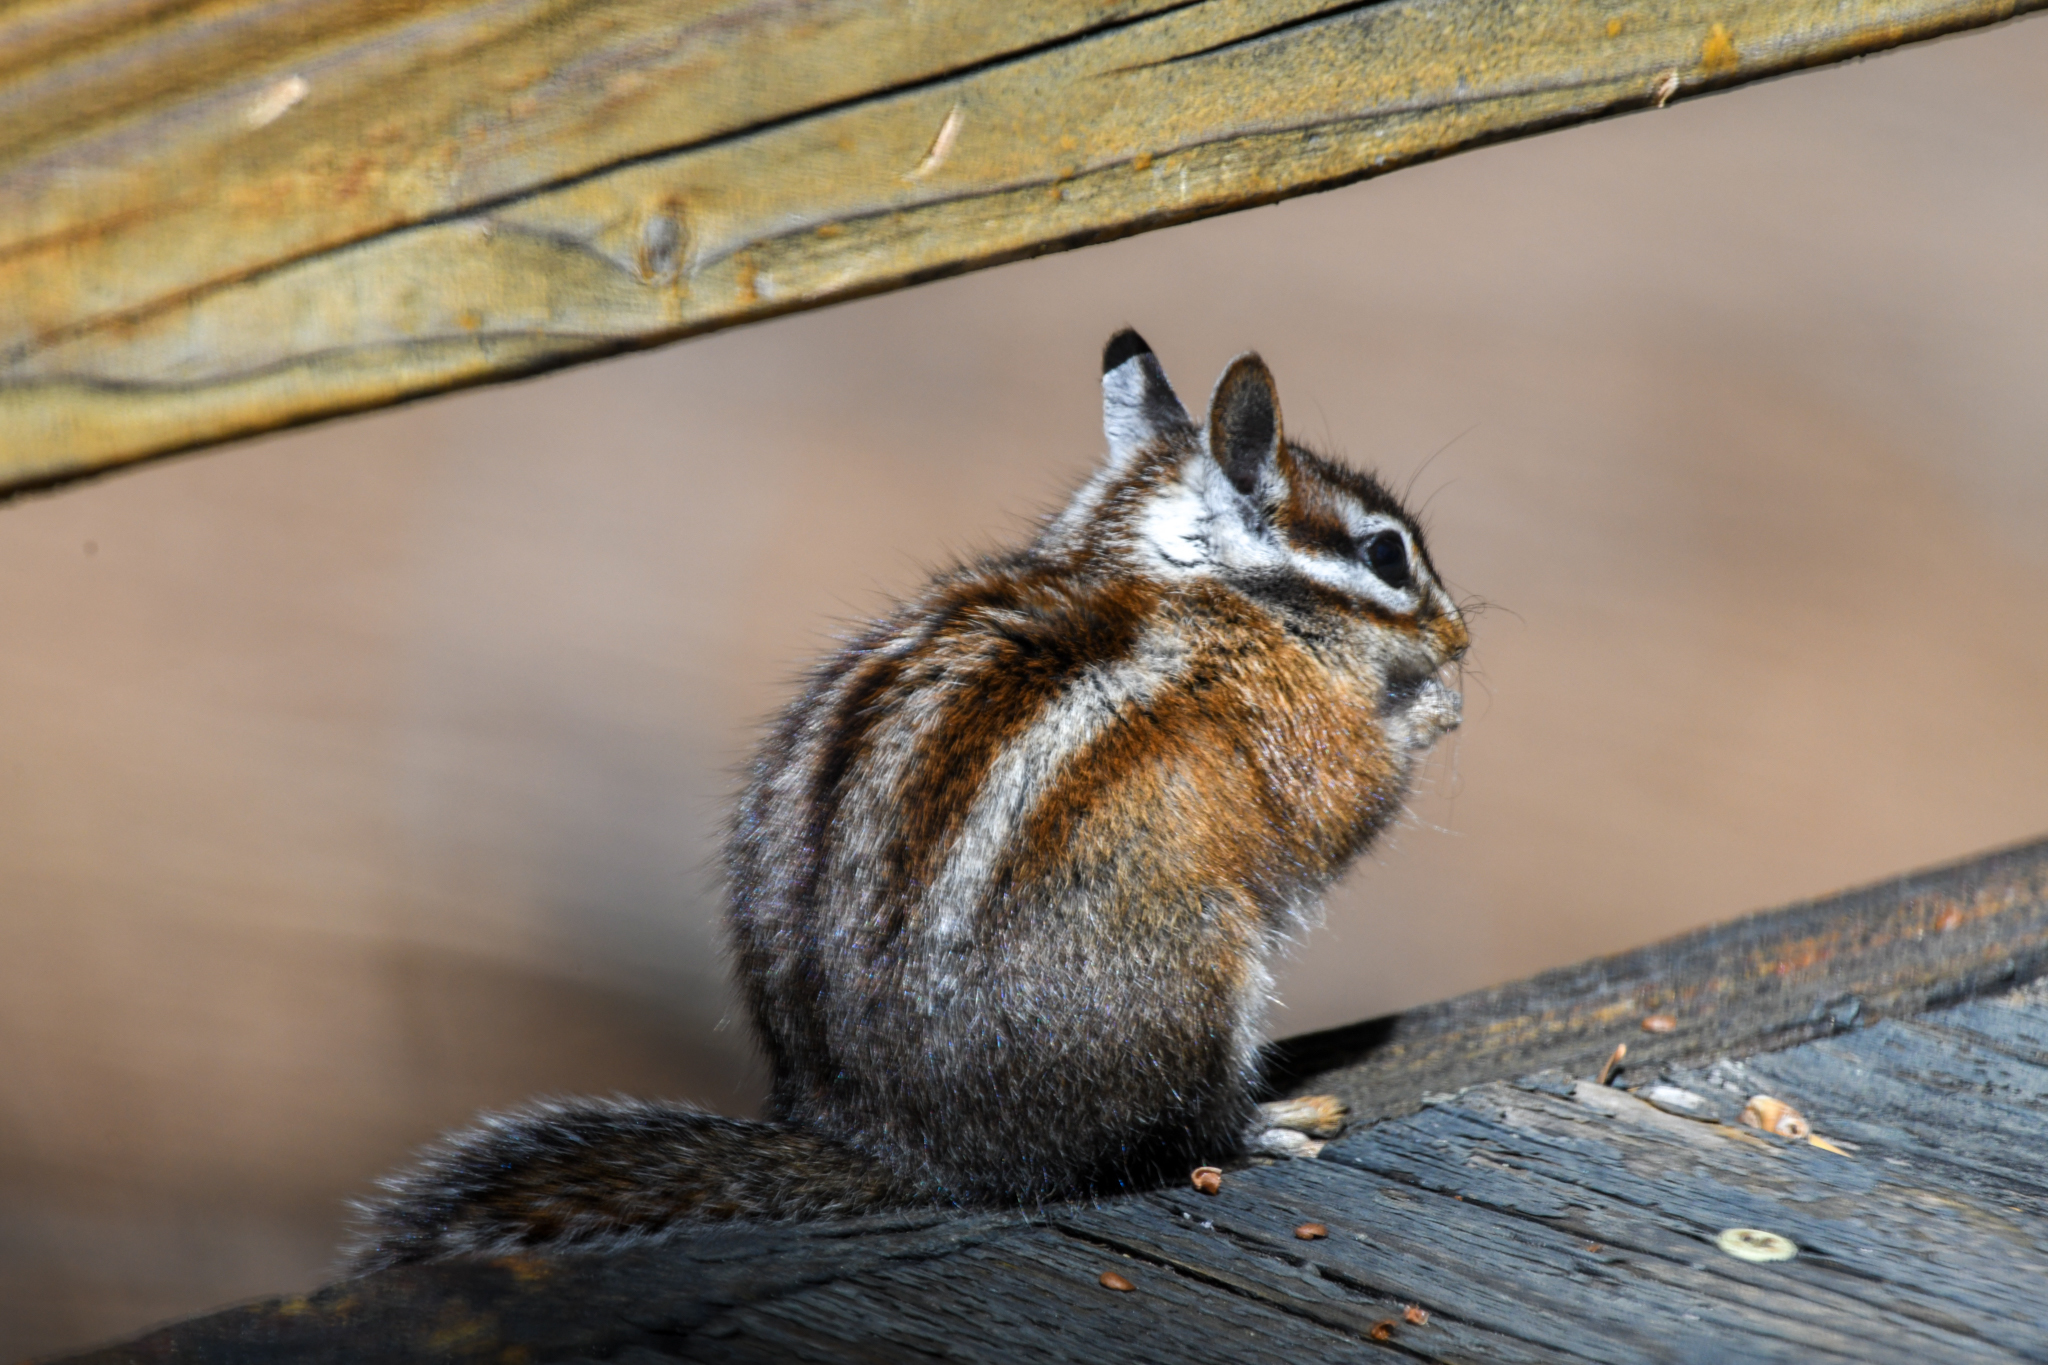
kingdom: Animalia
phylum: Chordata
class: Mammalia
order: Rodentia
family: Sciuridae
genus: Tamias
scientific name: Tamias quadrimaculatus
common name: Long-eared chipmunk
